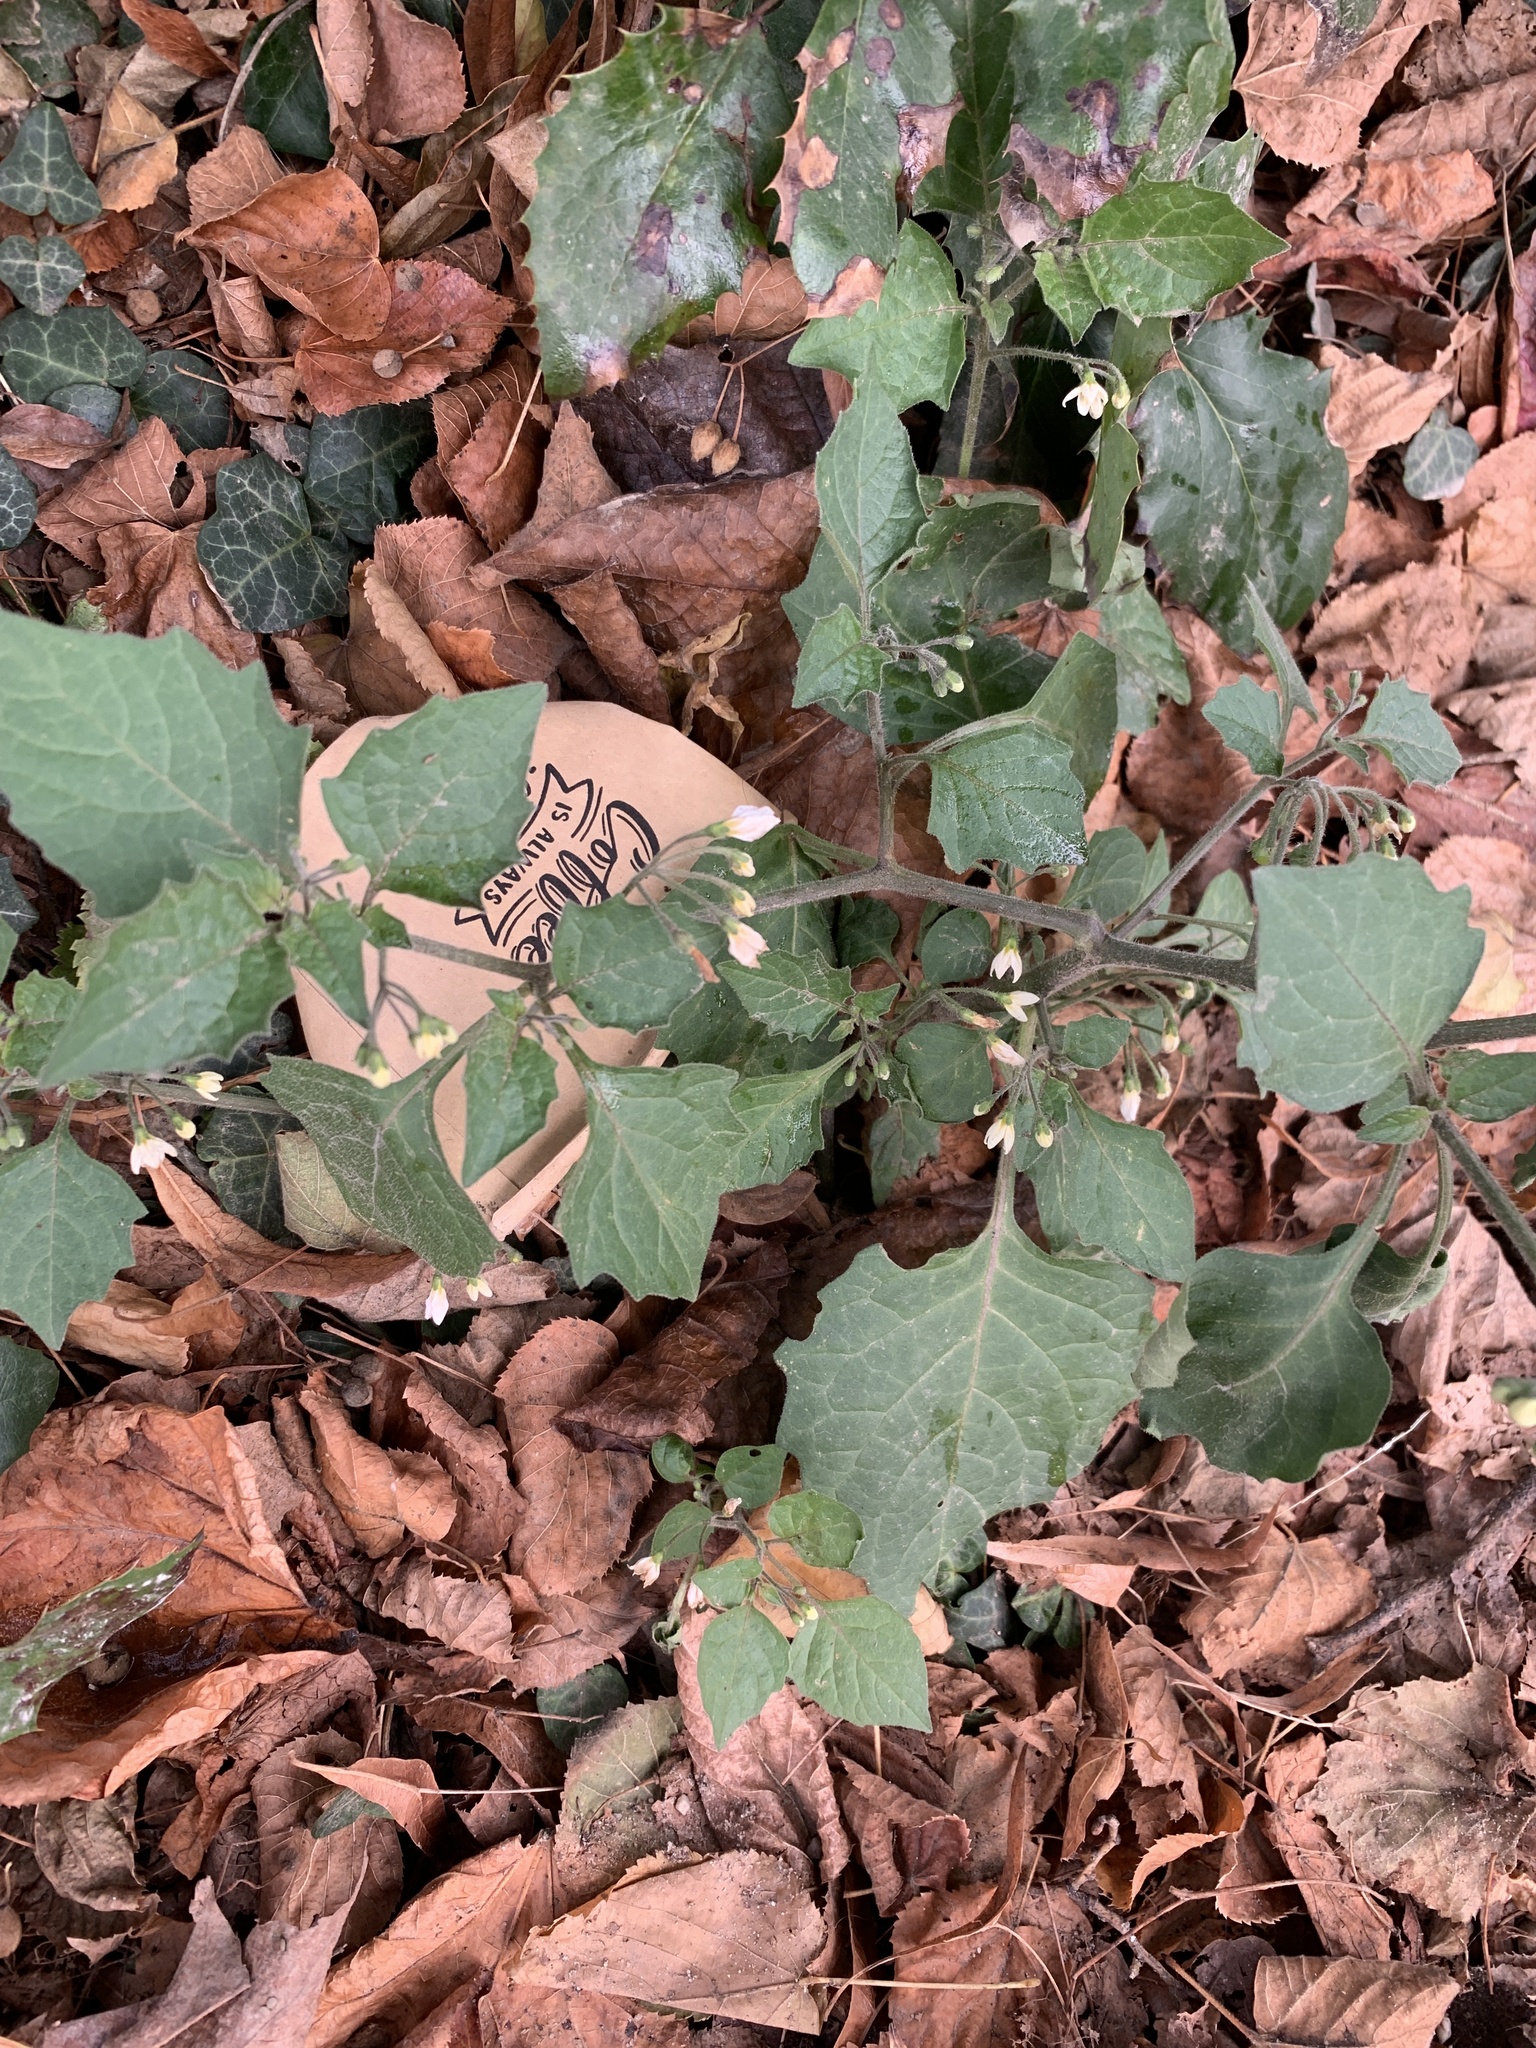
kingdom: Plantae
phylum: Tracheophyta
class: Magnoliopsida
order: Solanales
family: Solanaceae
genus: Solanum
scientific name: Solanum nigrum
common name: Black nightshade
